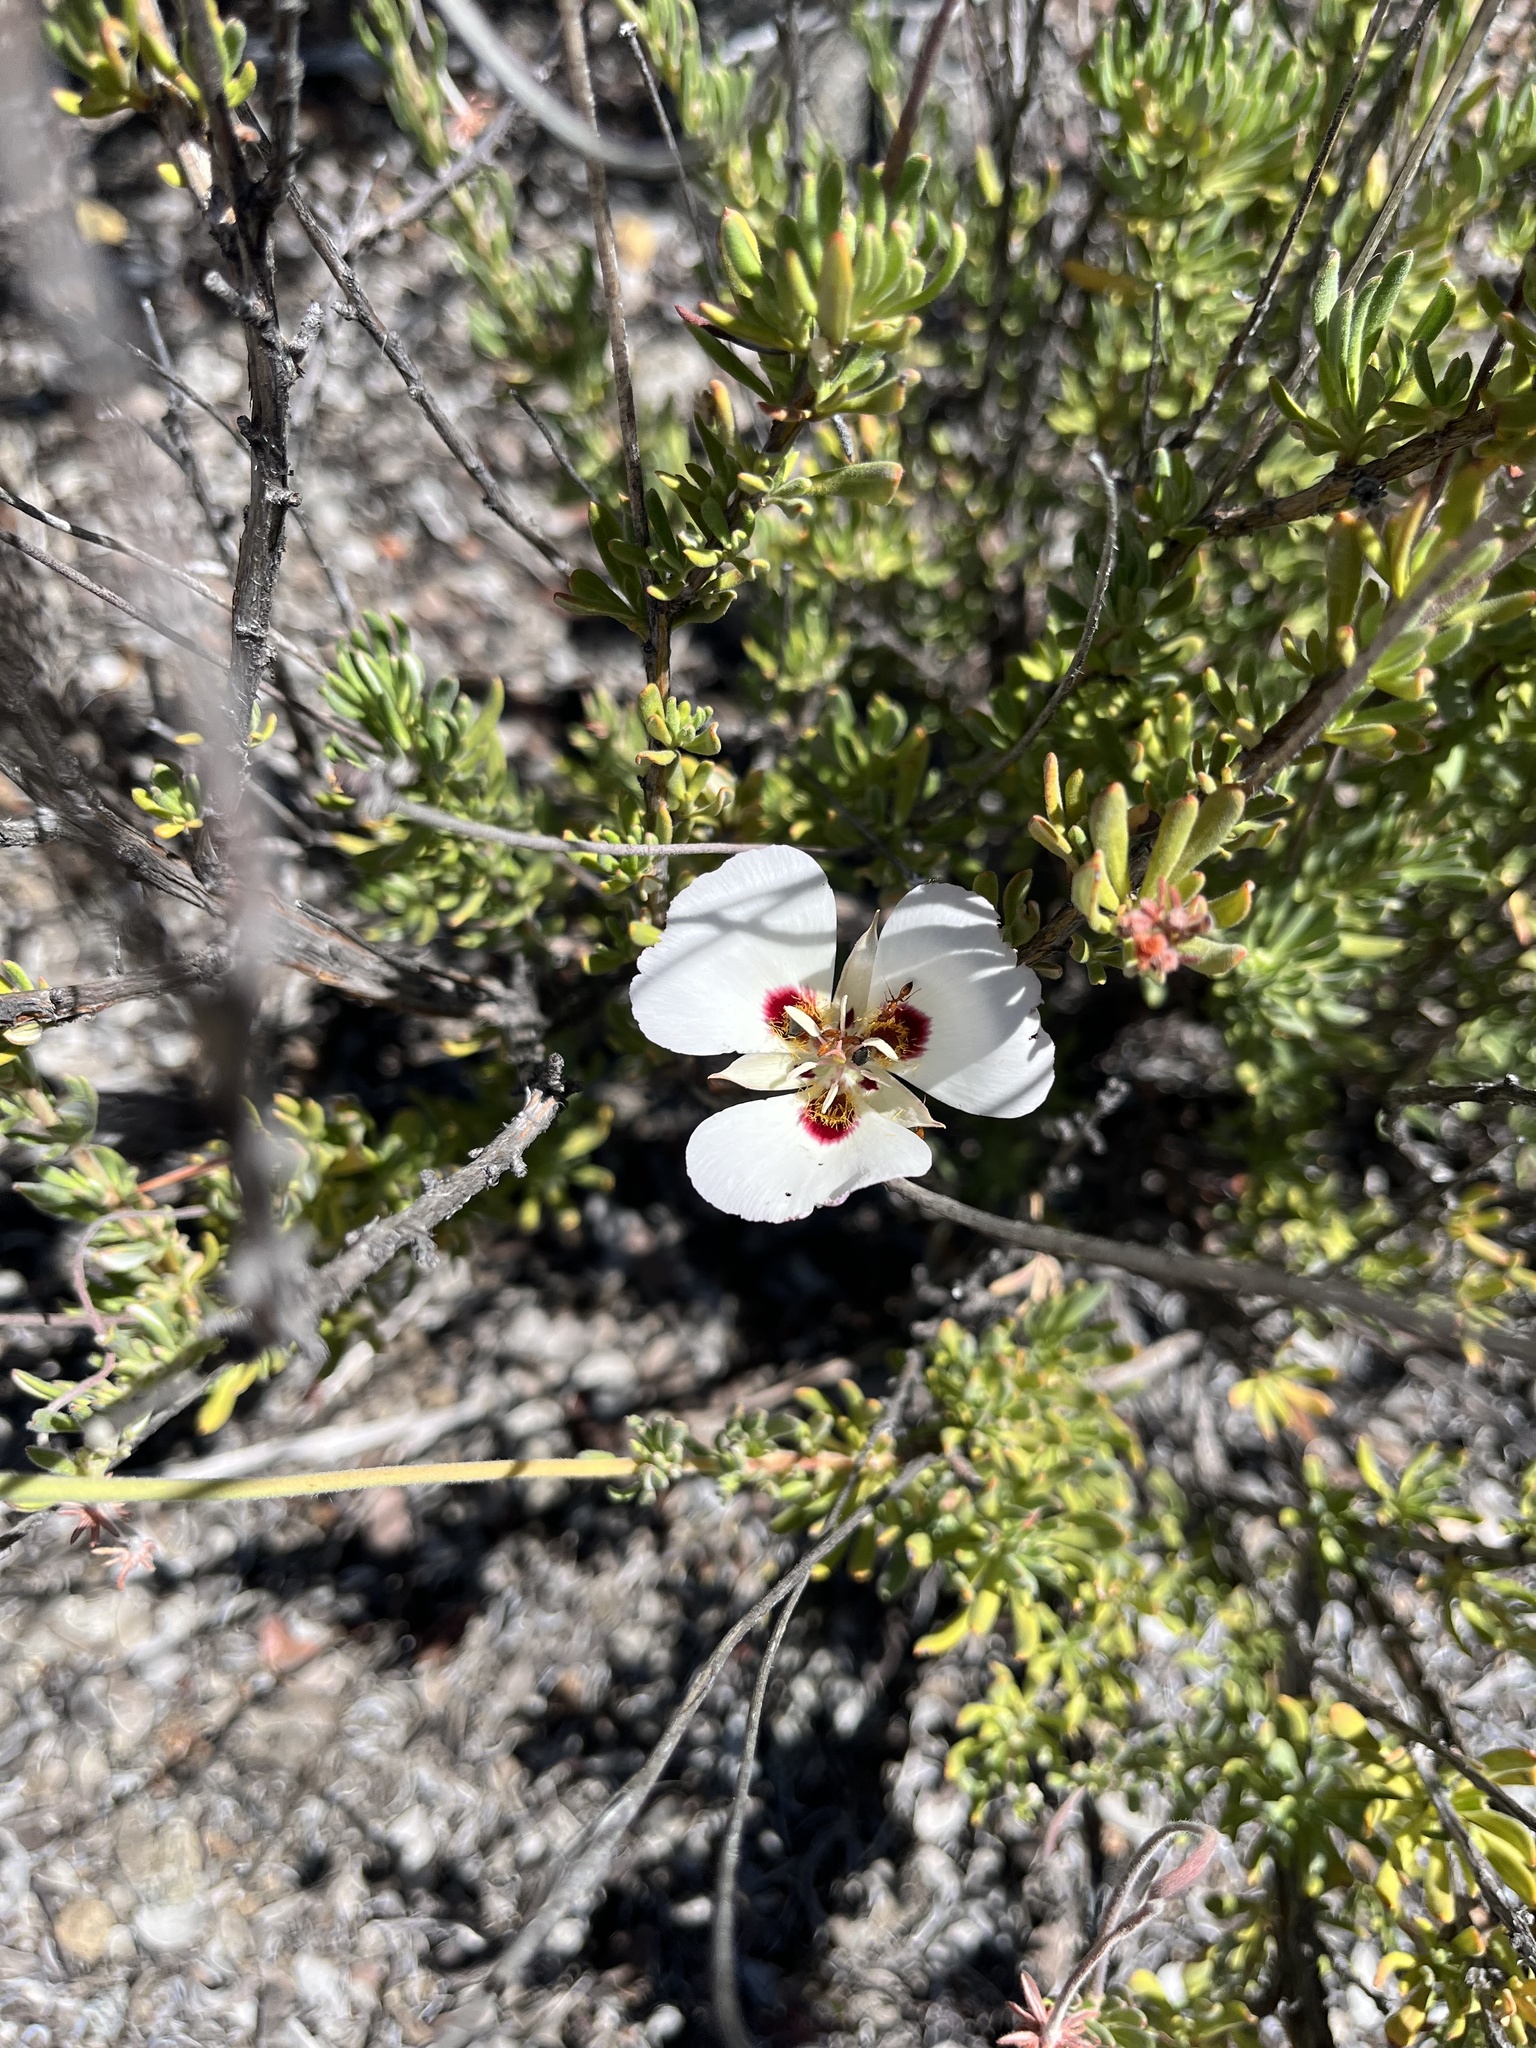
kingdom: Plantae
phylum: Tracheophyta
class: Liliopsida
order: Liliales
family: Liliaceae
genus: Calochortus
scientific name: Calochortus dunnii
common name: Dunn's mariposa-lily
